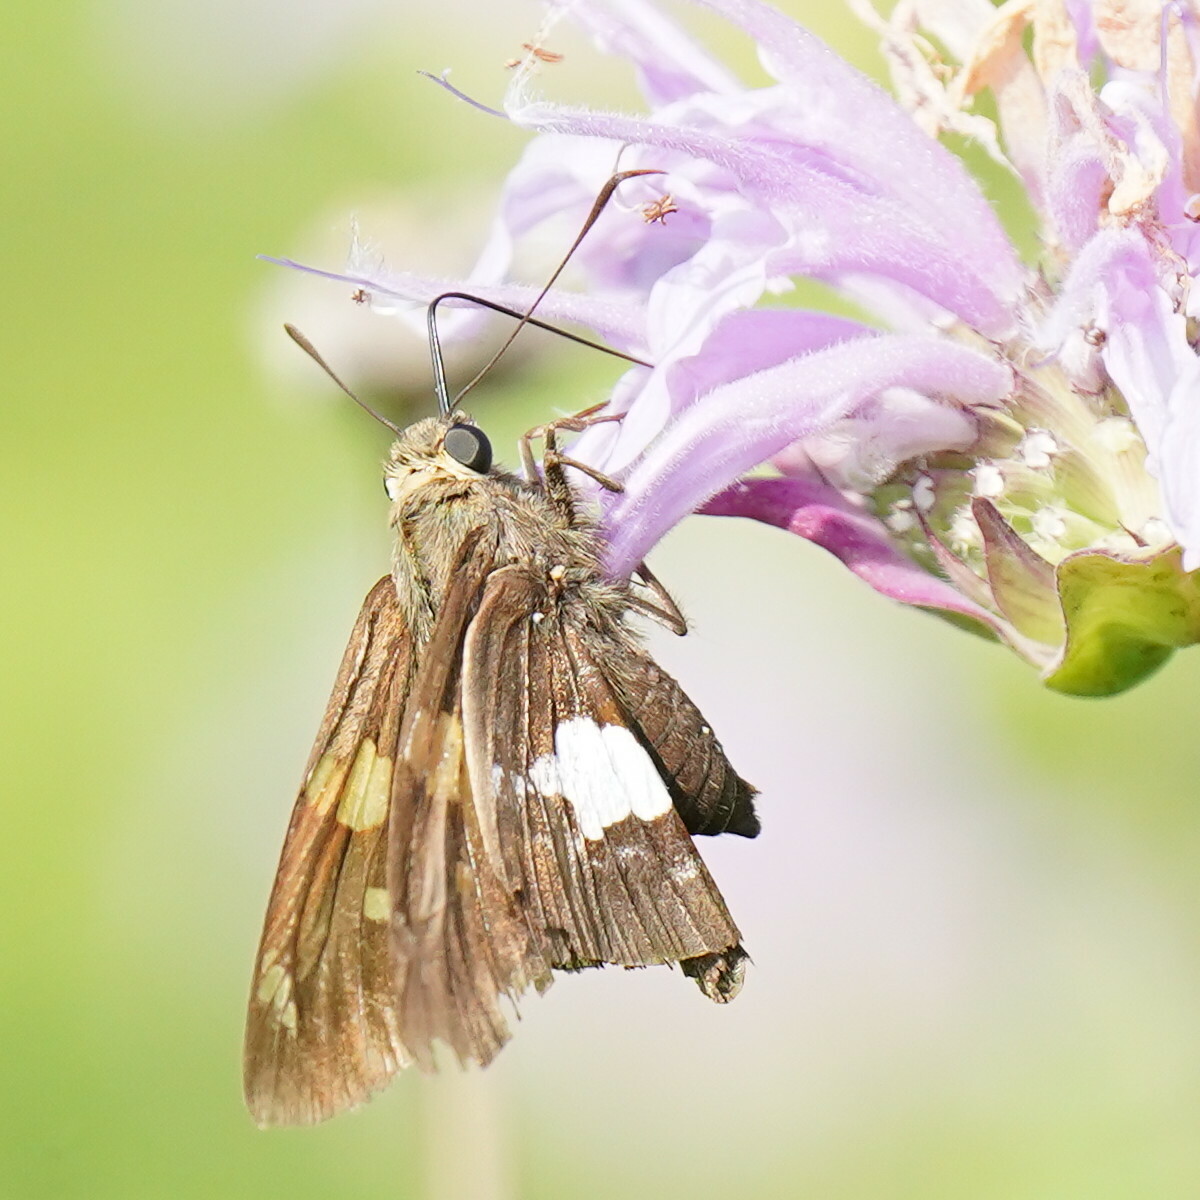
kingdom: Animalia
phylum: Arthropoda
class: Insecta
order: Lepidoptera
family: Hesperiidae
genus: Epargyreus
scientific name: Epargyreus clarus
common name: Silver-spotted skipper
